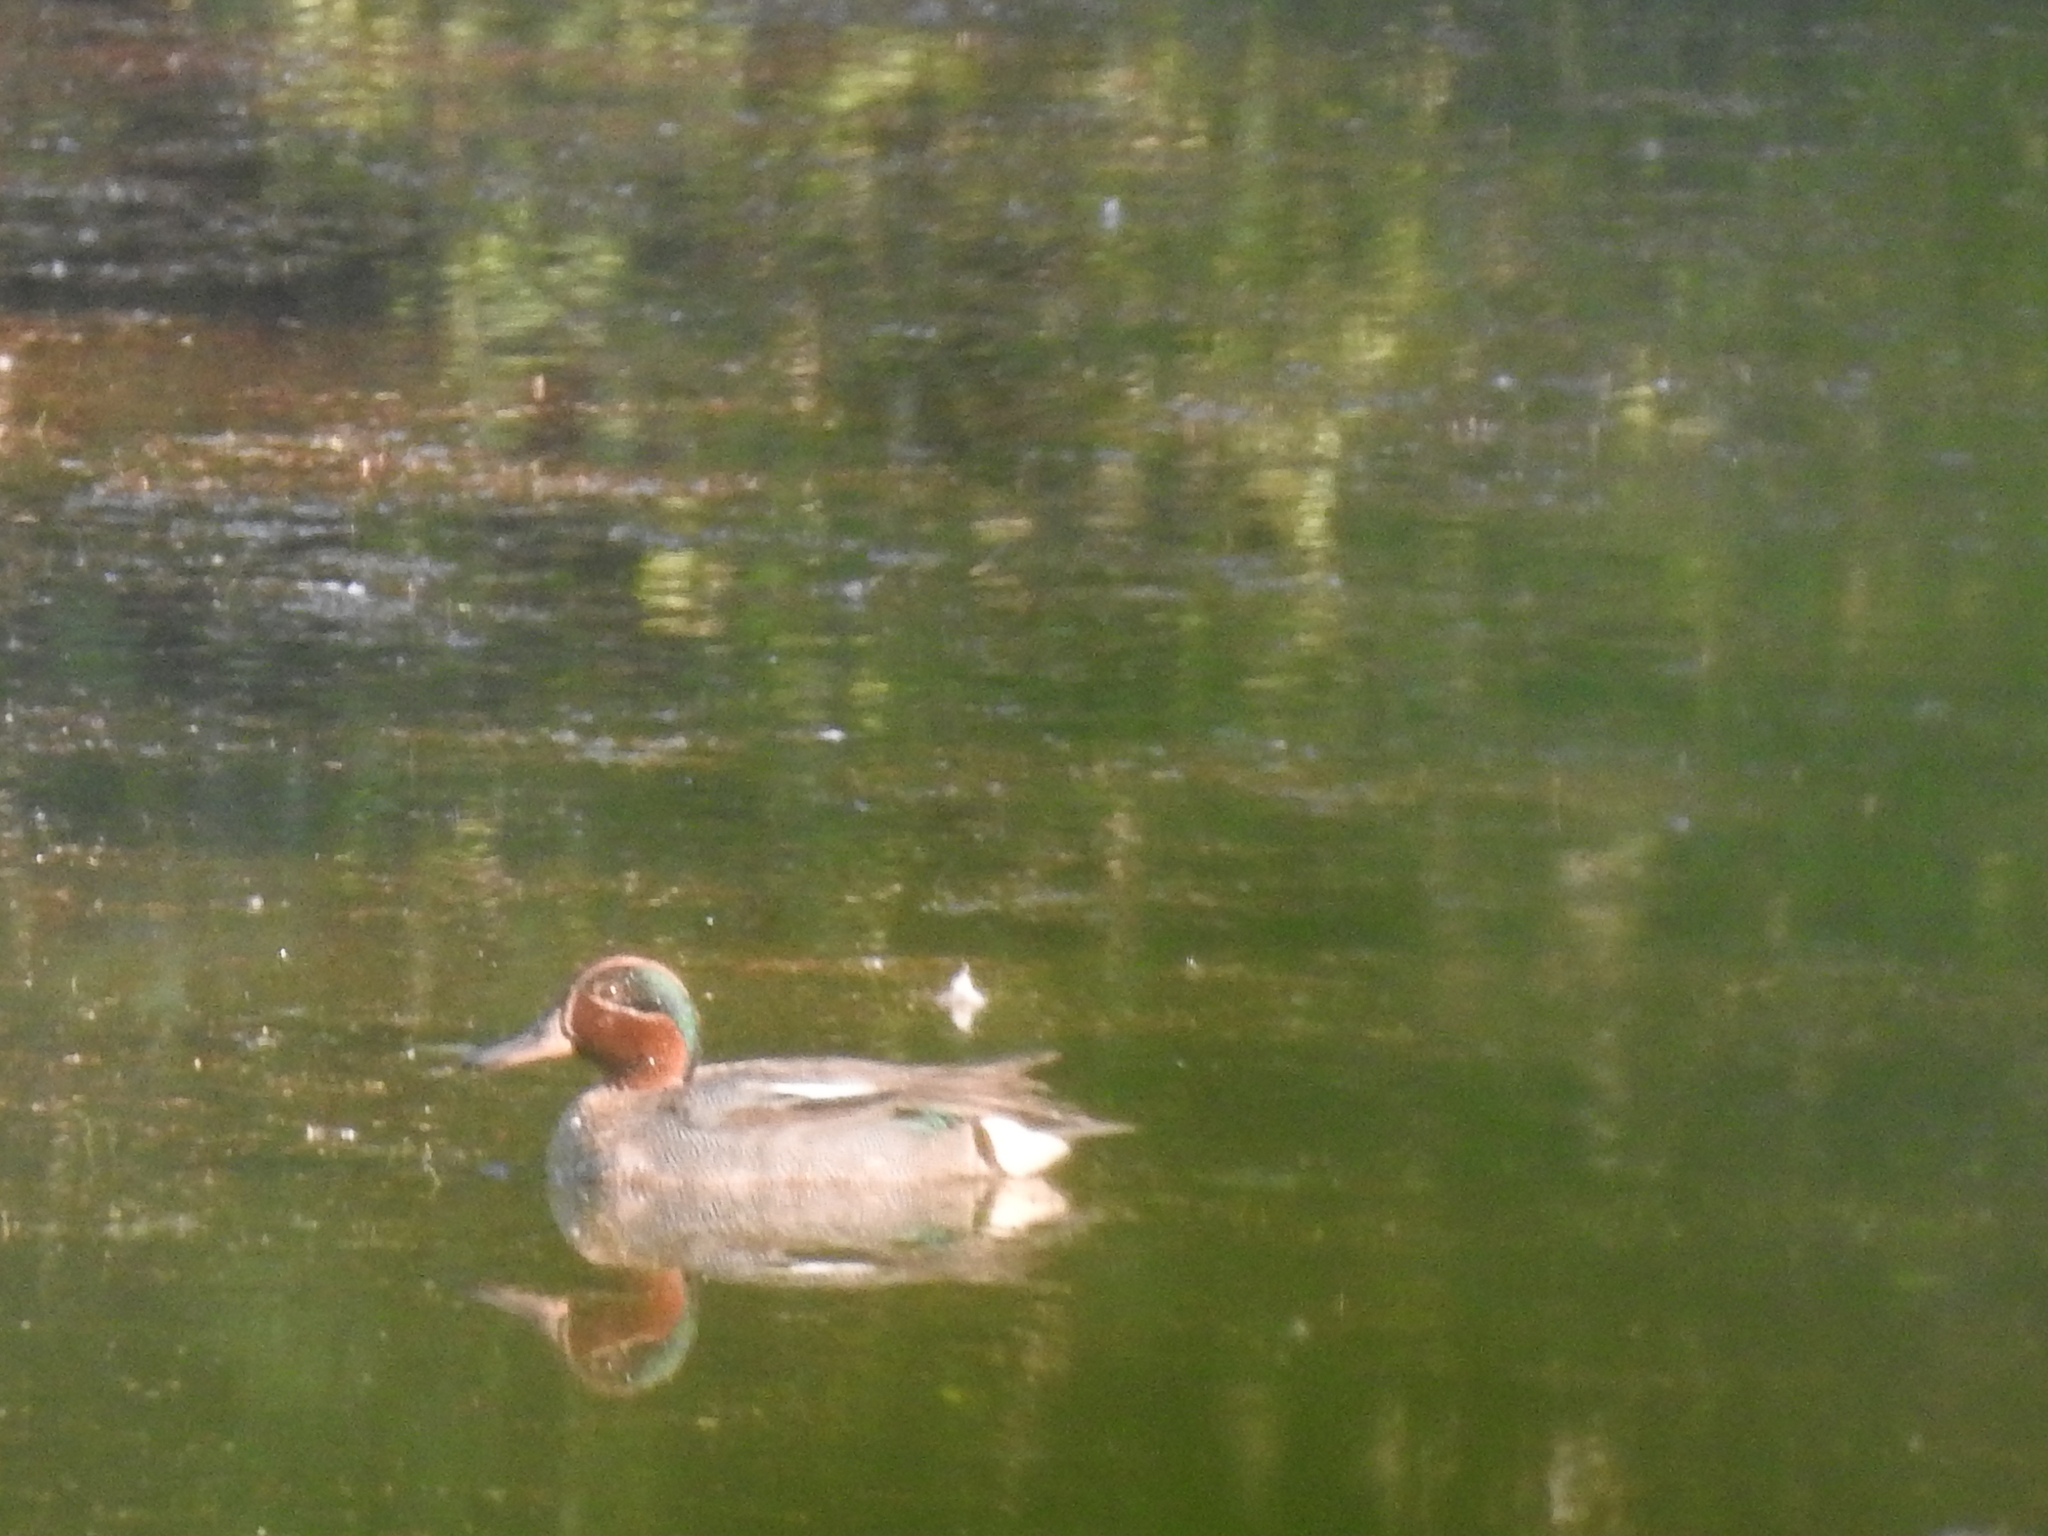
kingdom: Animalia
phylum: Chordata
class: Aves
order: Anseriformes
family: Anatidae
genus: Anas
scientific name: Anas crecca
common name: Eurasian teal
